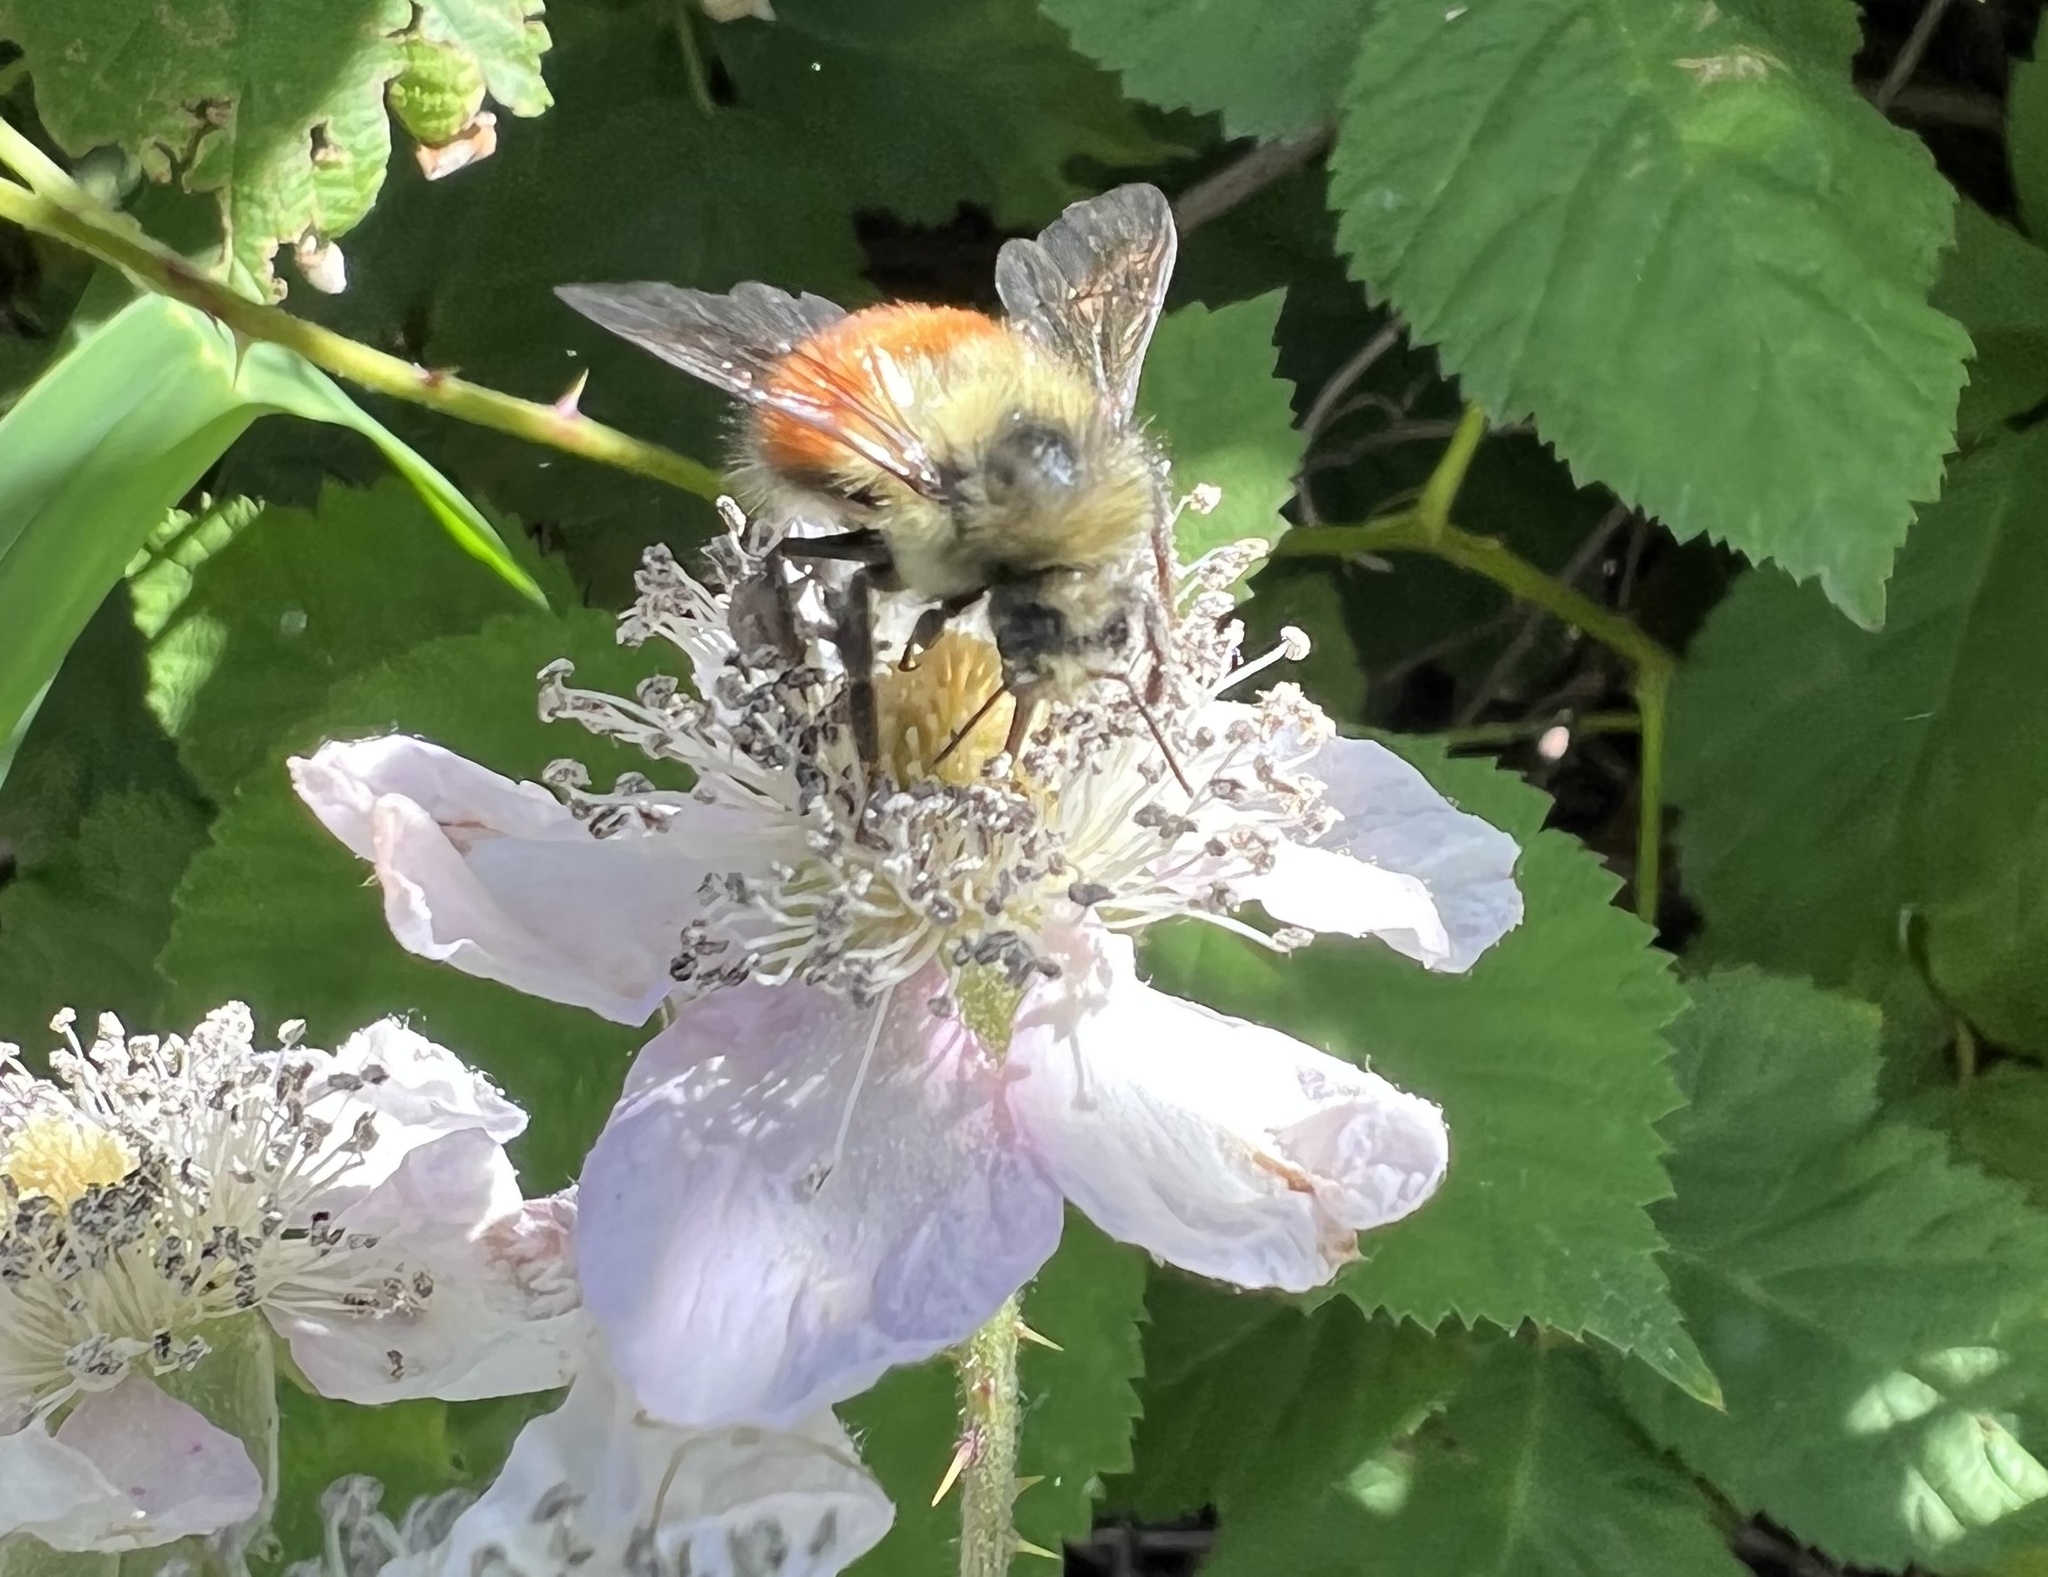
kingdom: Animalia
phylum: Arthropoda
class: Insecta
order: Hymenoptera
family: Apidae
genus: Bombus
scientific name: Bombus melanopygus
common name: Black tail bumble bee
